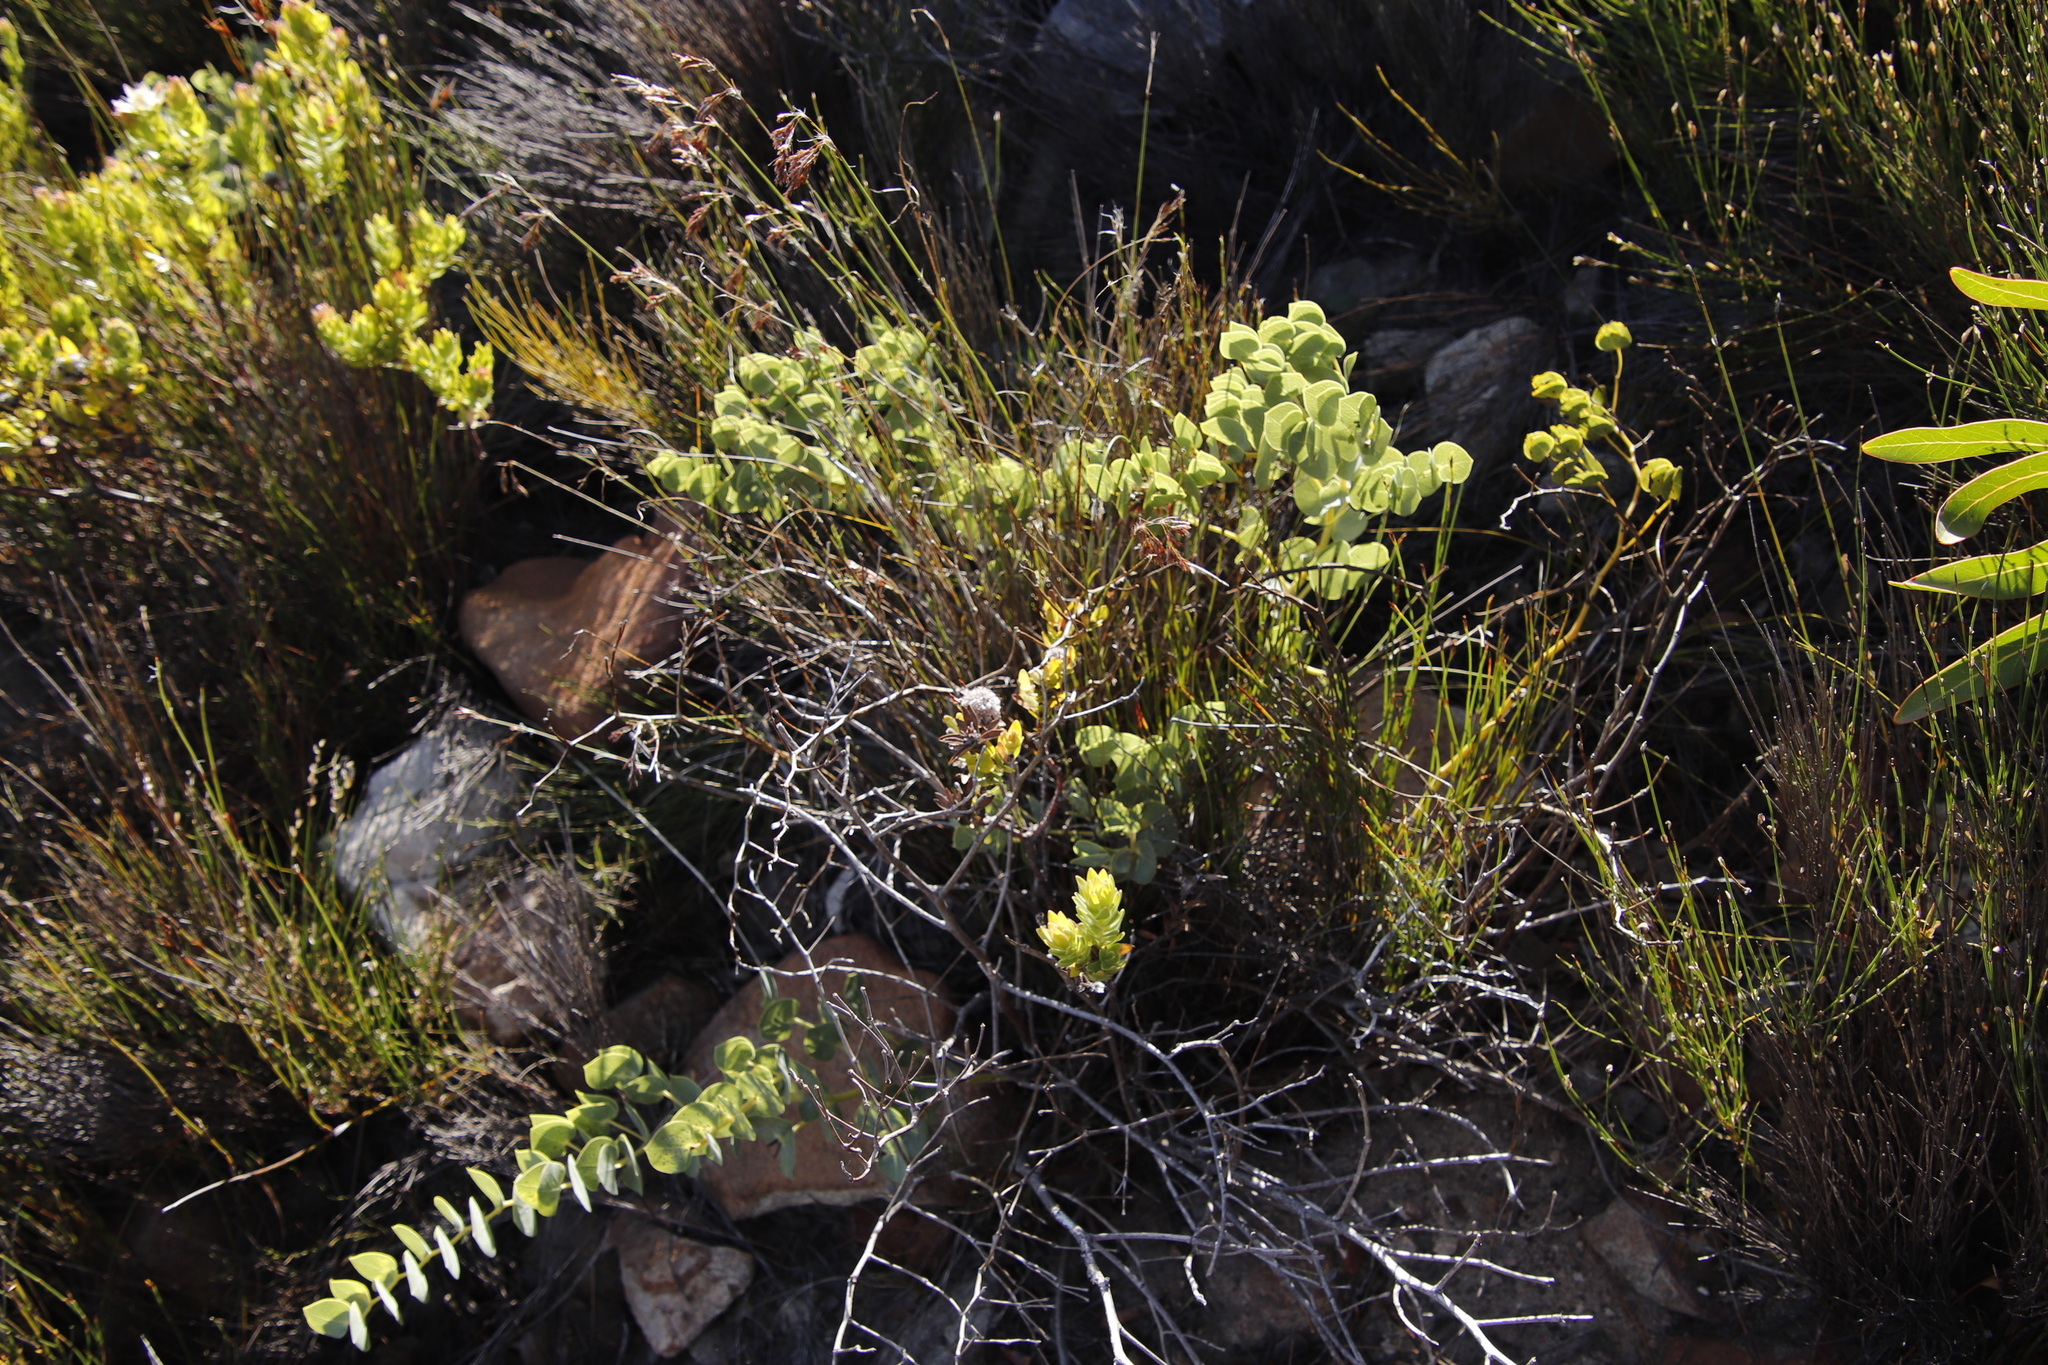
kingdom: Plantae
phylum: Tracheophyta
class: Magnoliopsida
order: Fabales
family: Fabaceae
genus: Rafnia
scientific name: Rafnia acuminata
